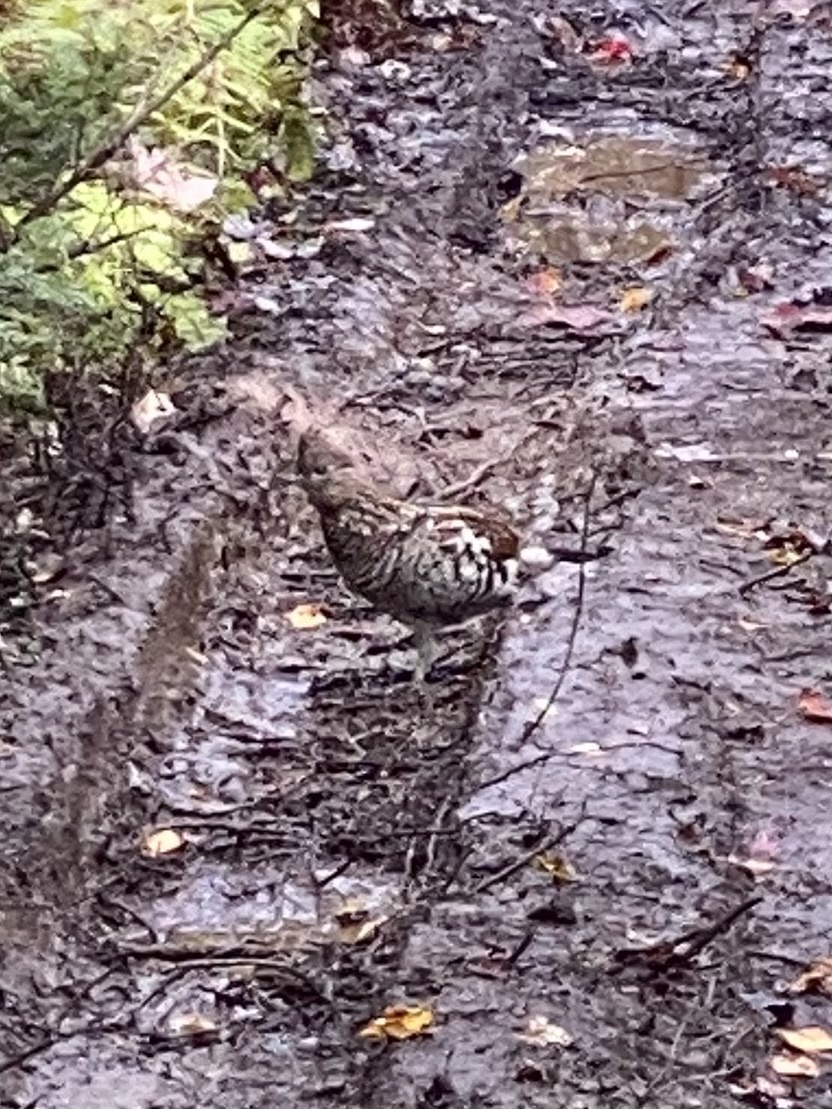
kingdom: Animalia
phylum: Chordata
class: Aves
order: Galliformes
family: Phasianidae
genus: Bonasa
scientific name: Bonasa umbellus
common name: Ruffed grouse
